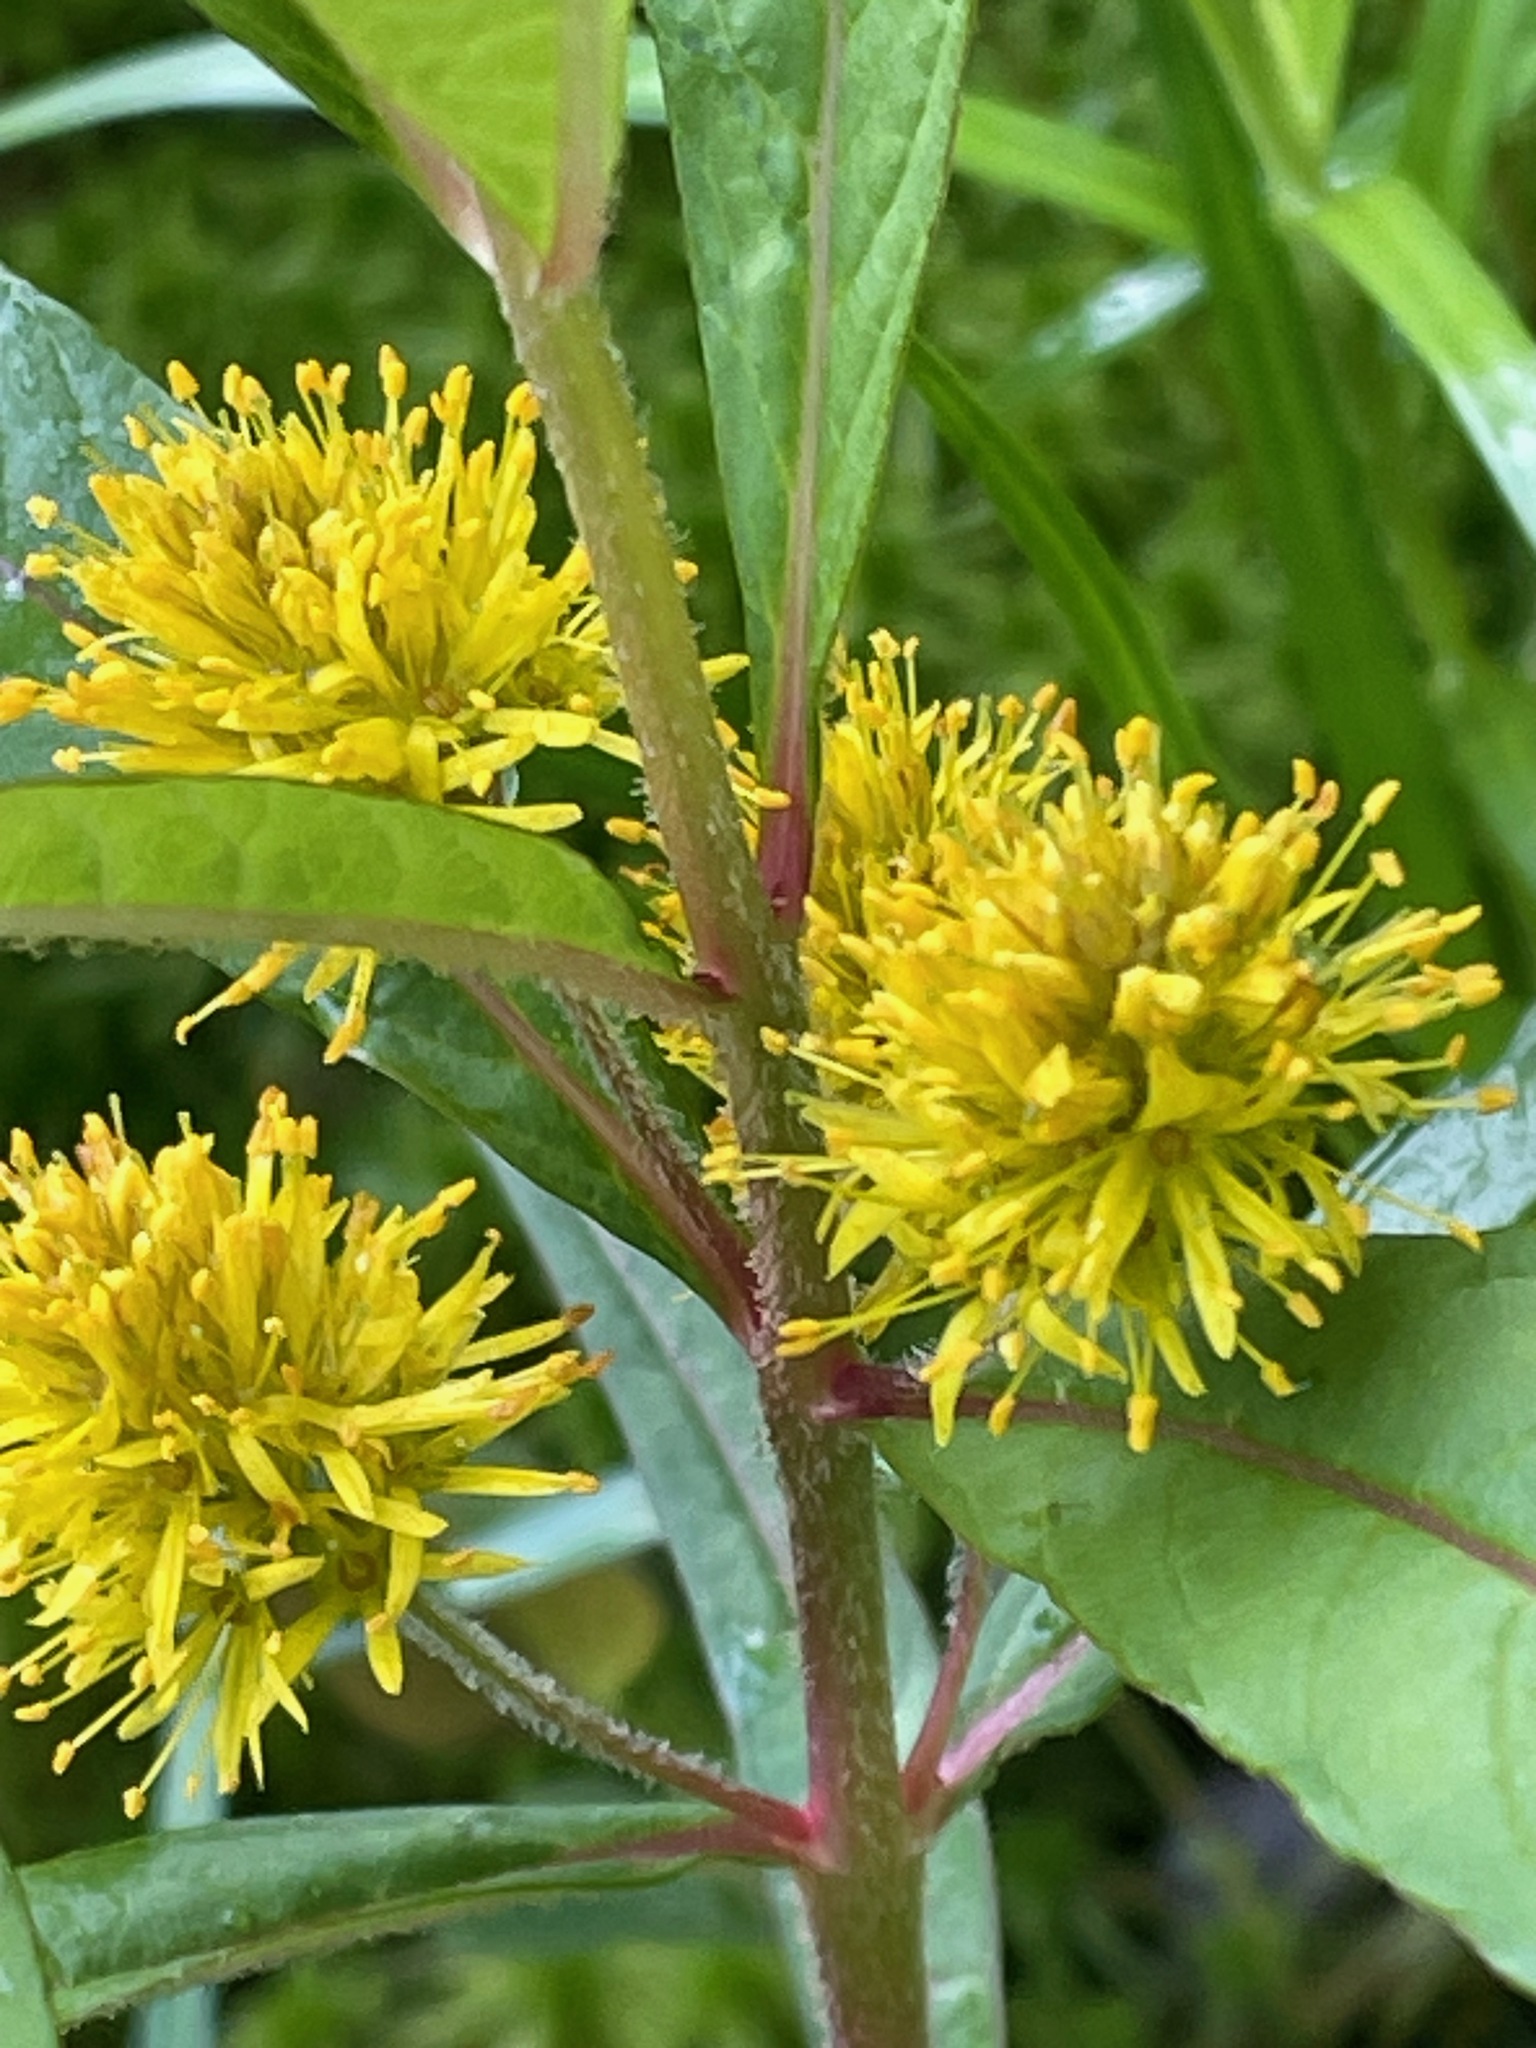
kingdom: Plantae
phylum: Tracheophyta
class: Magnoliopsida
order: Ericales
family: Primulaceae
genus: Lysimachia
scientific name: Lysimachia thyrsiflora
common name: Tufted loosestrife
